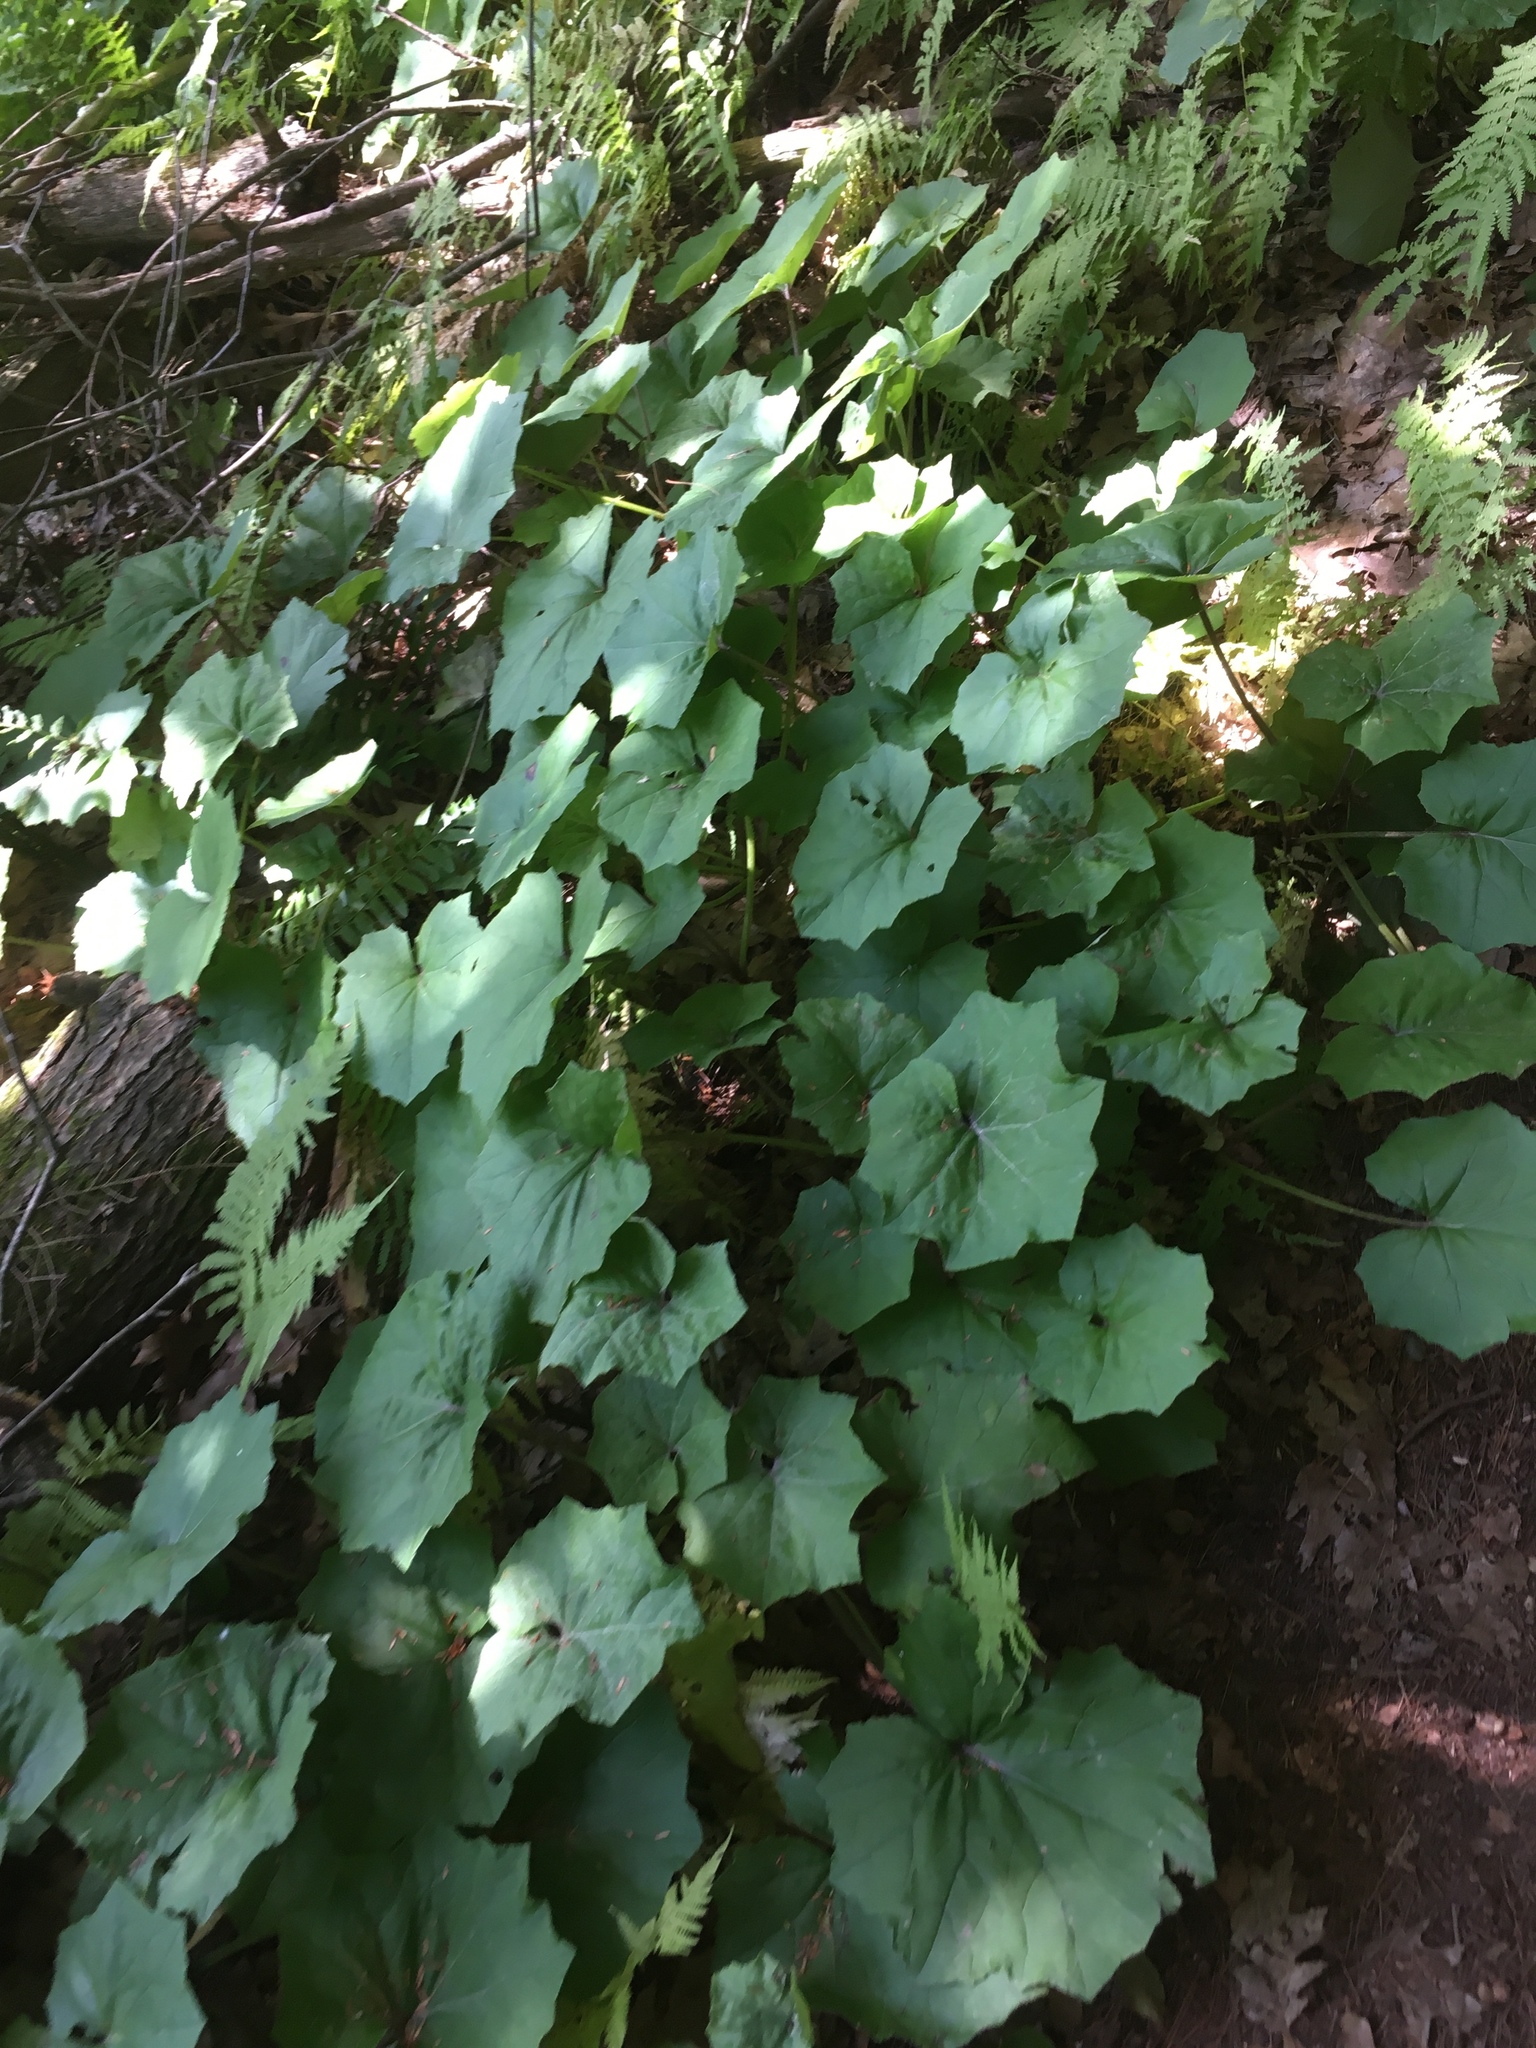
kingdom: Plantae
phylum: Tracheophyta
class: Magnoliopsida
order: Asterales
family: Asteraceae
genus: Tussilago
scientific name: Tussilago farfara
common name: Coltsfoot
